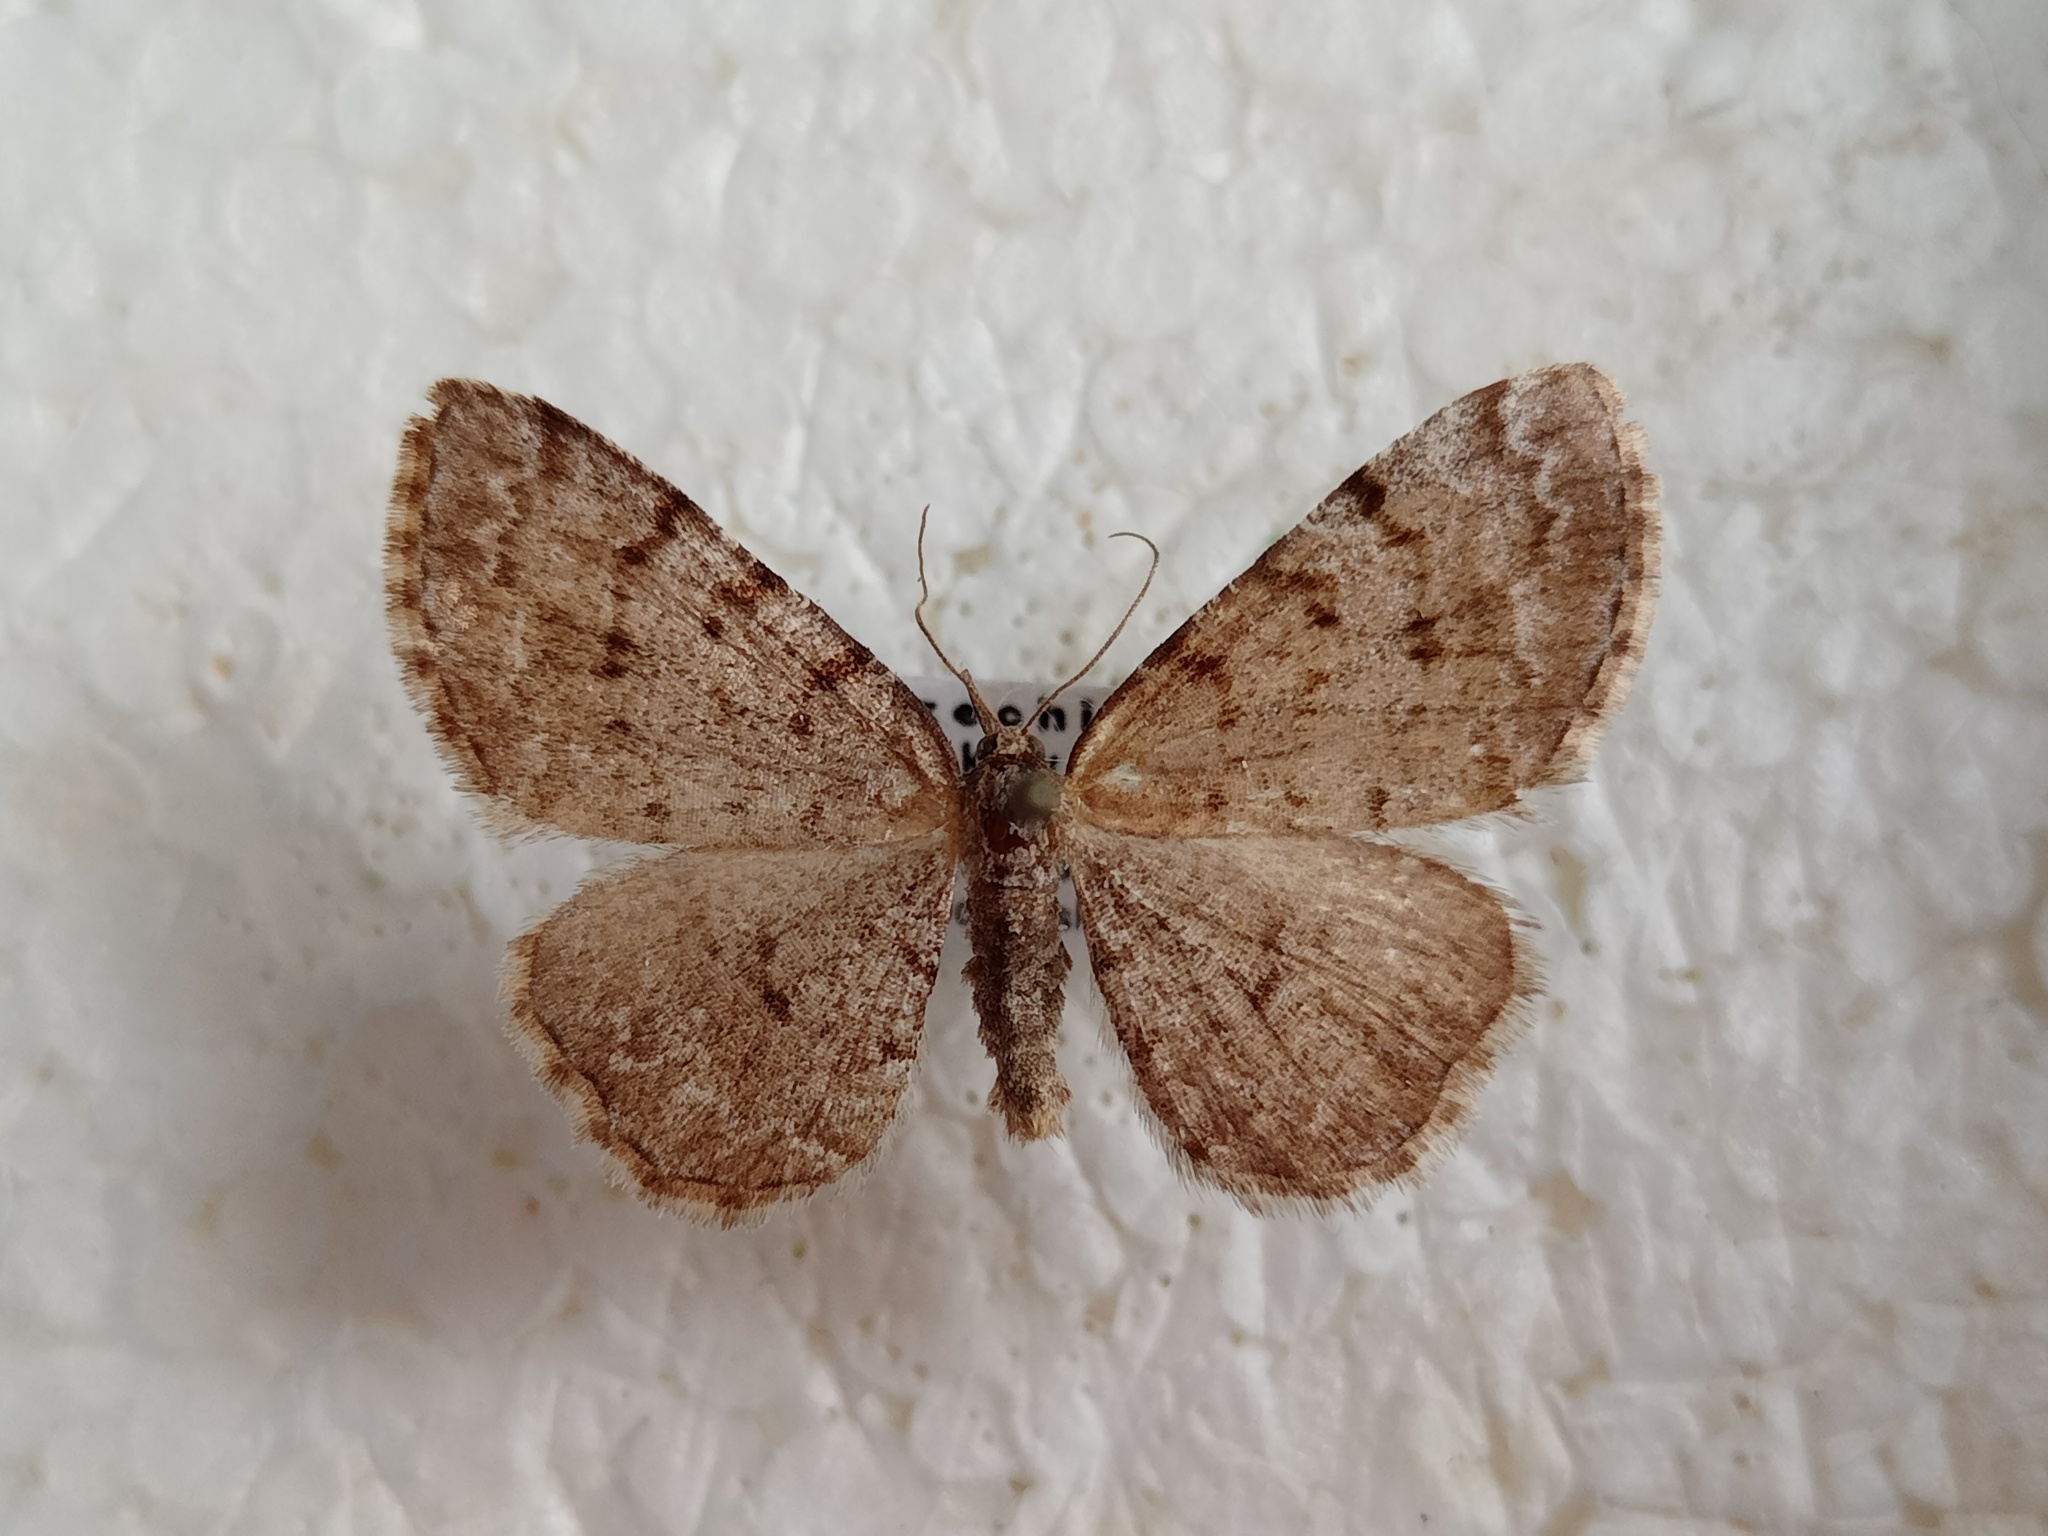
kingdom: Animalia
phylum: Arthropoda
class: Insecta
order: Lepidoptera
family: Geometridae
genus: Aethalura
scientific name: Aethalura punctulata
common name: Grey birch
